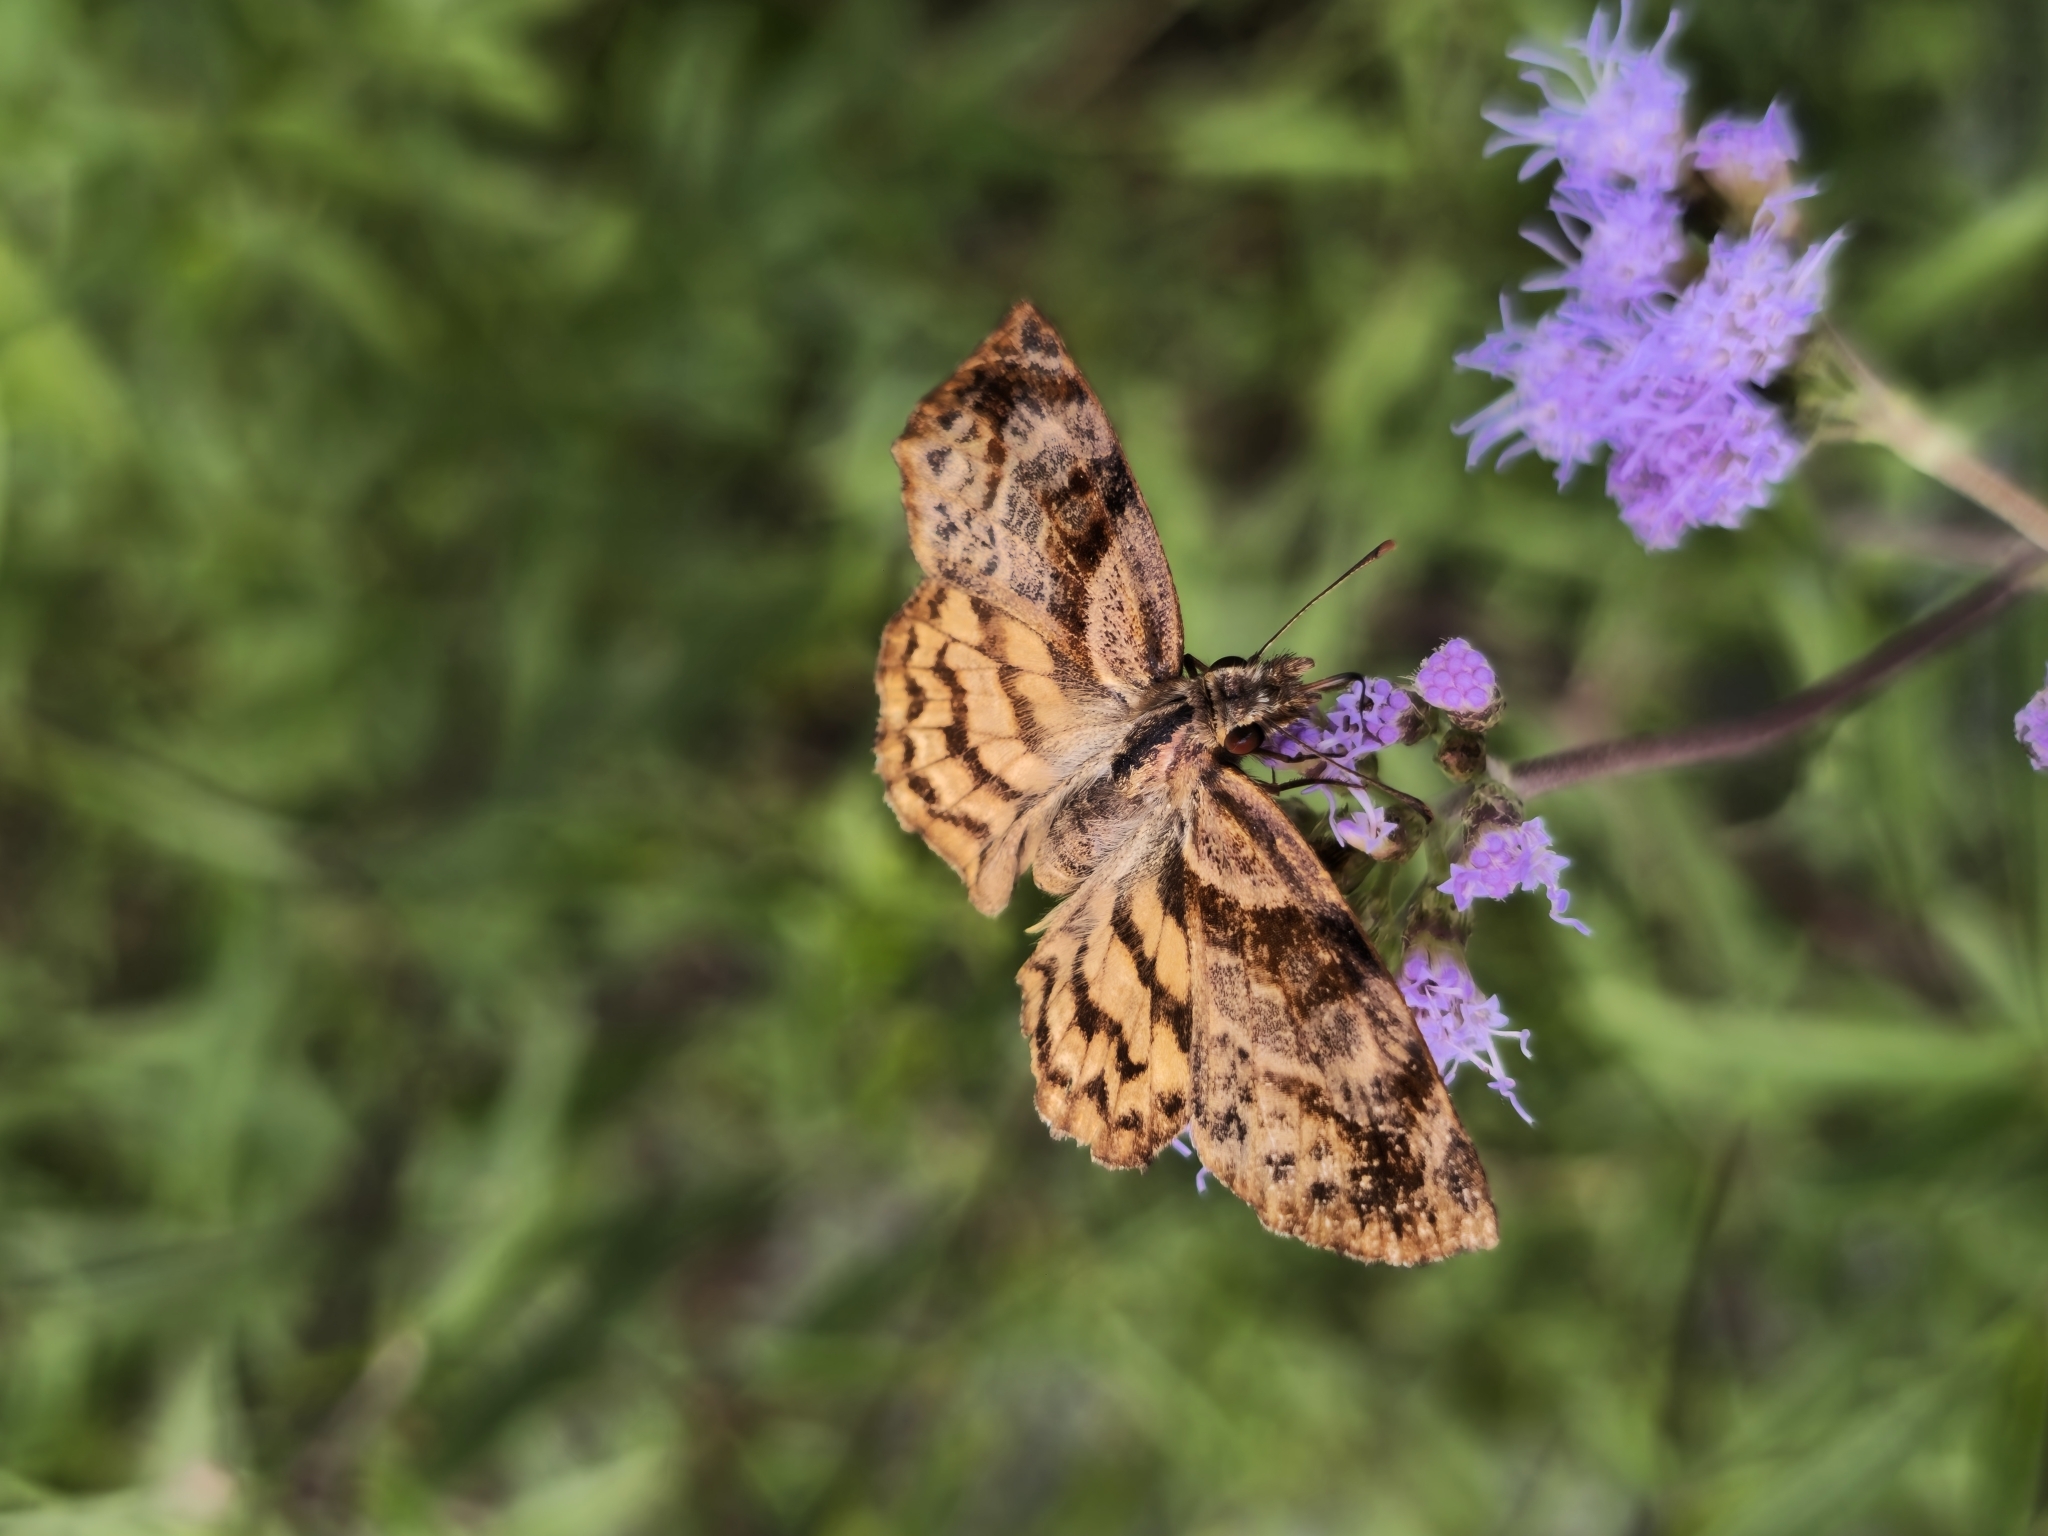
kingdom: Animalia
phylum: Arthropoda
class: Insecta
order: Lepidoptera
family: Hesperiidae
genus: Timochares
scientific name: Timochares trifasciata
